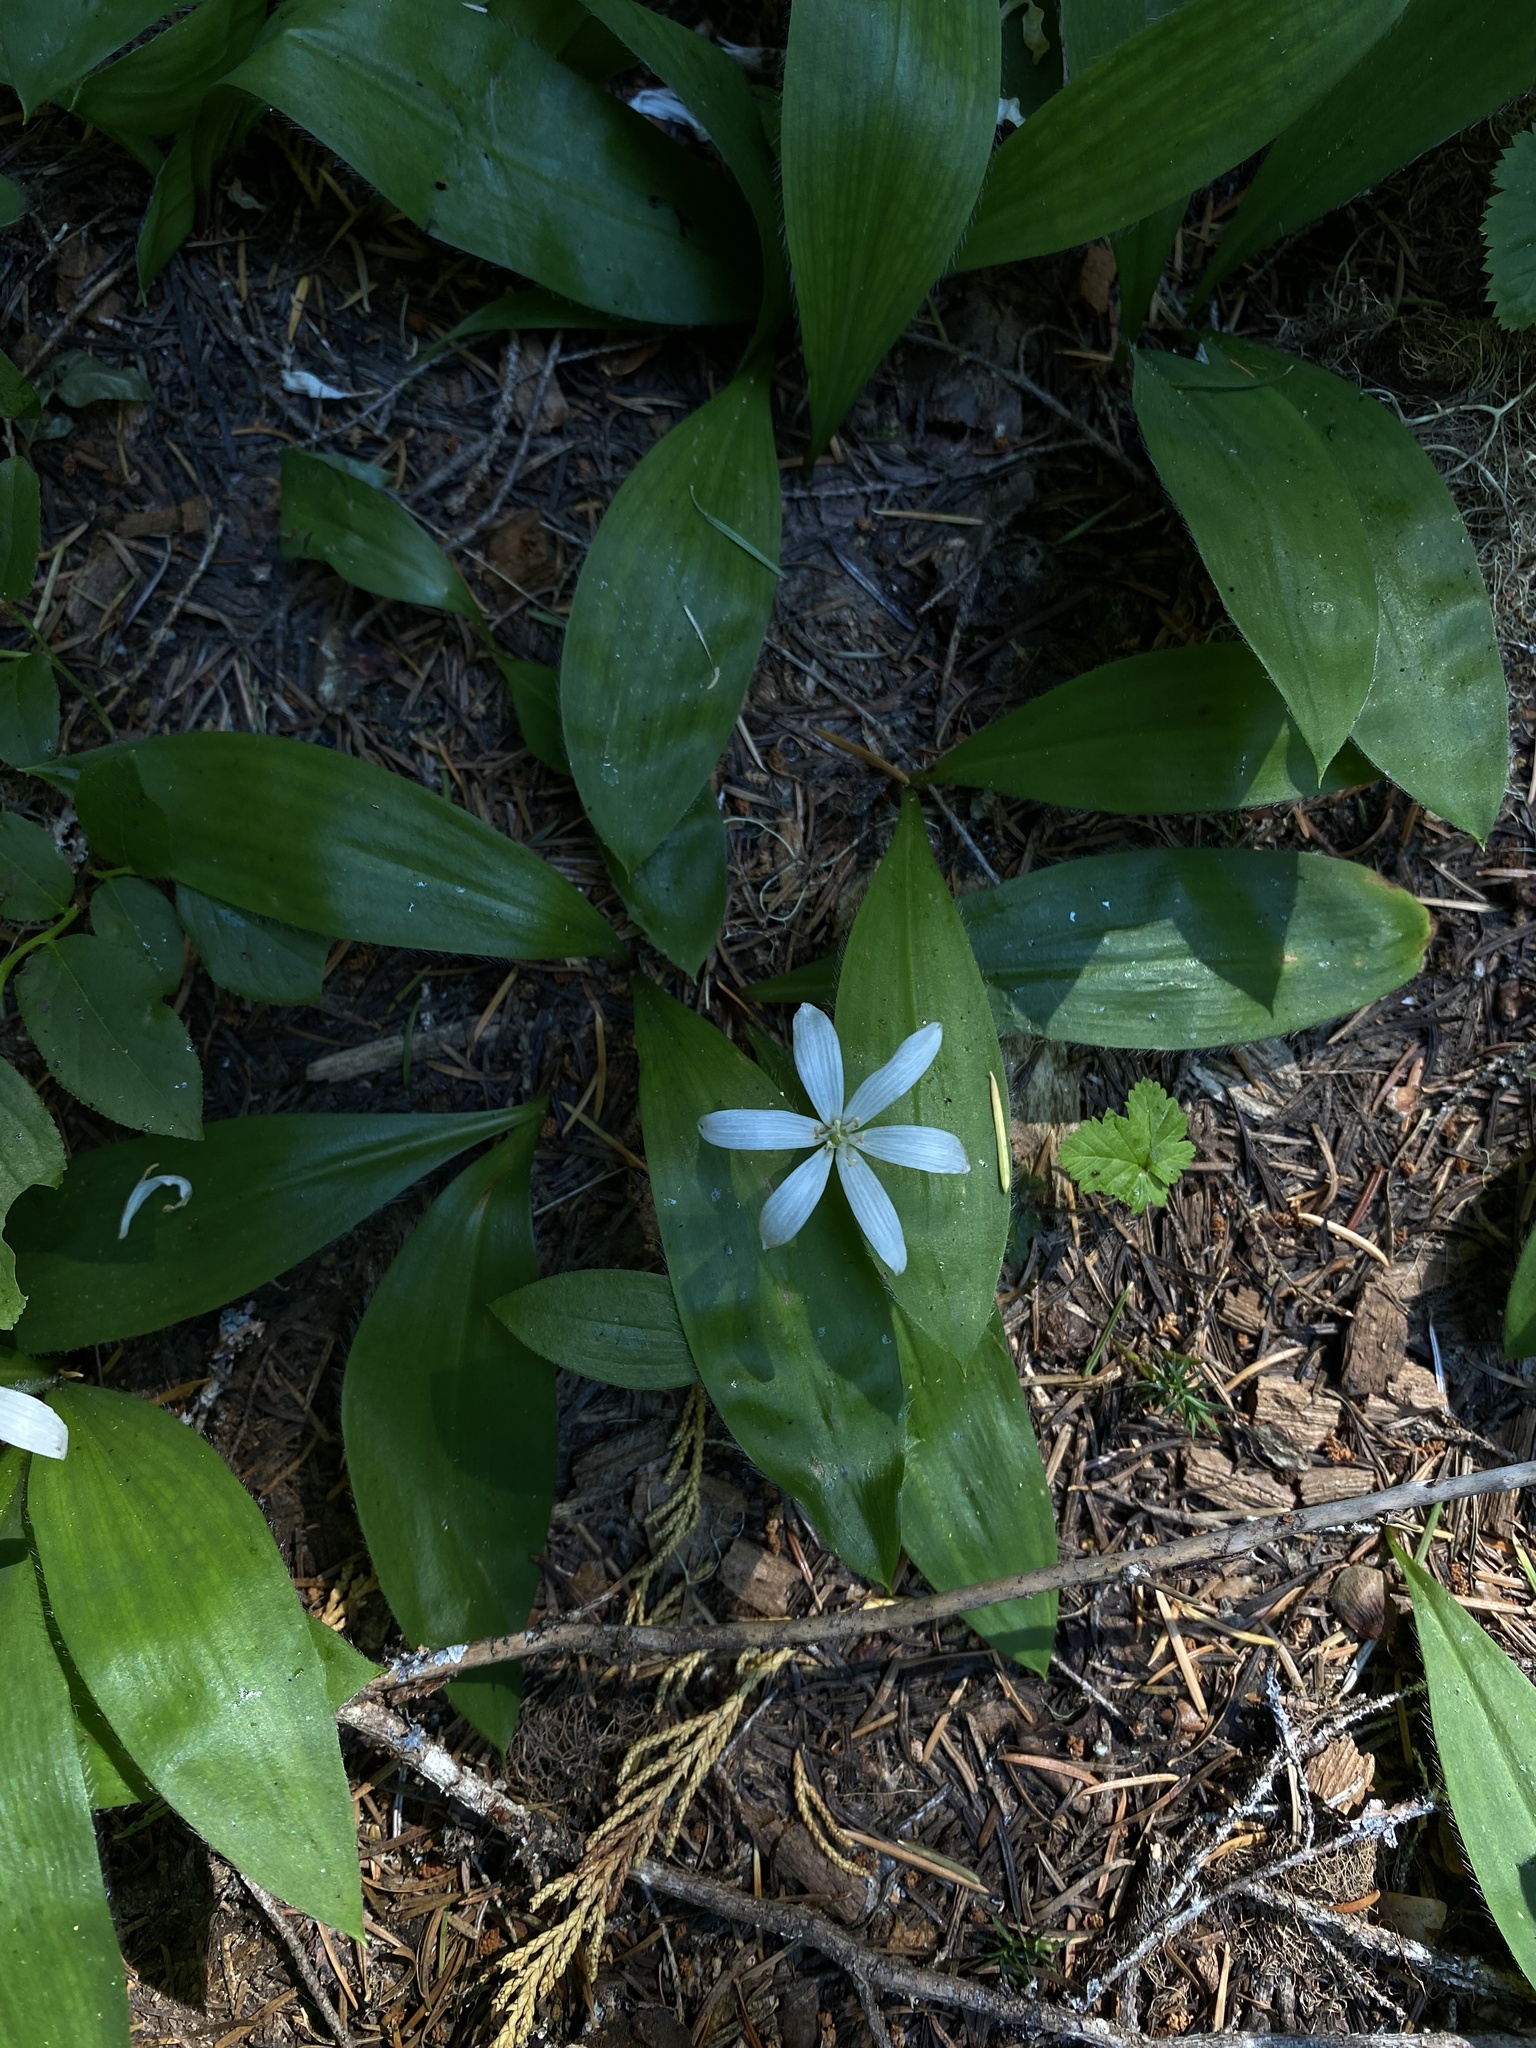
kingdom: Plantae
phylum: Tracheophyta
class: Liliopsida
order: Liliales
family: Liliaceae
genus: Clintonia
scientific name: Clintonia uniflora
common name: Queen's cup
